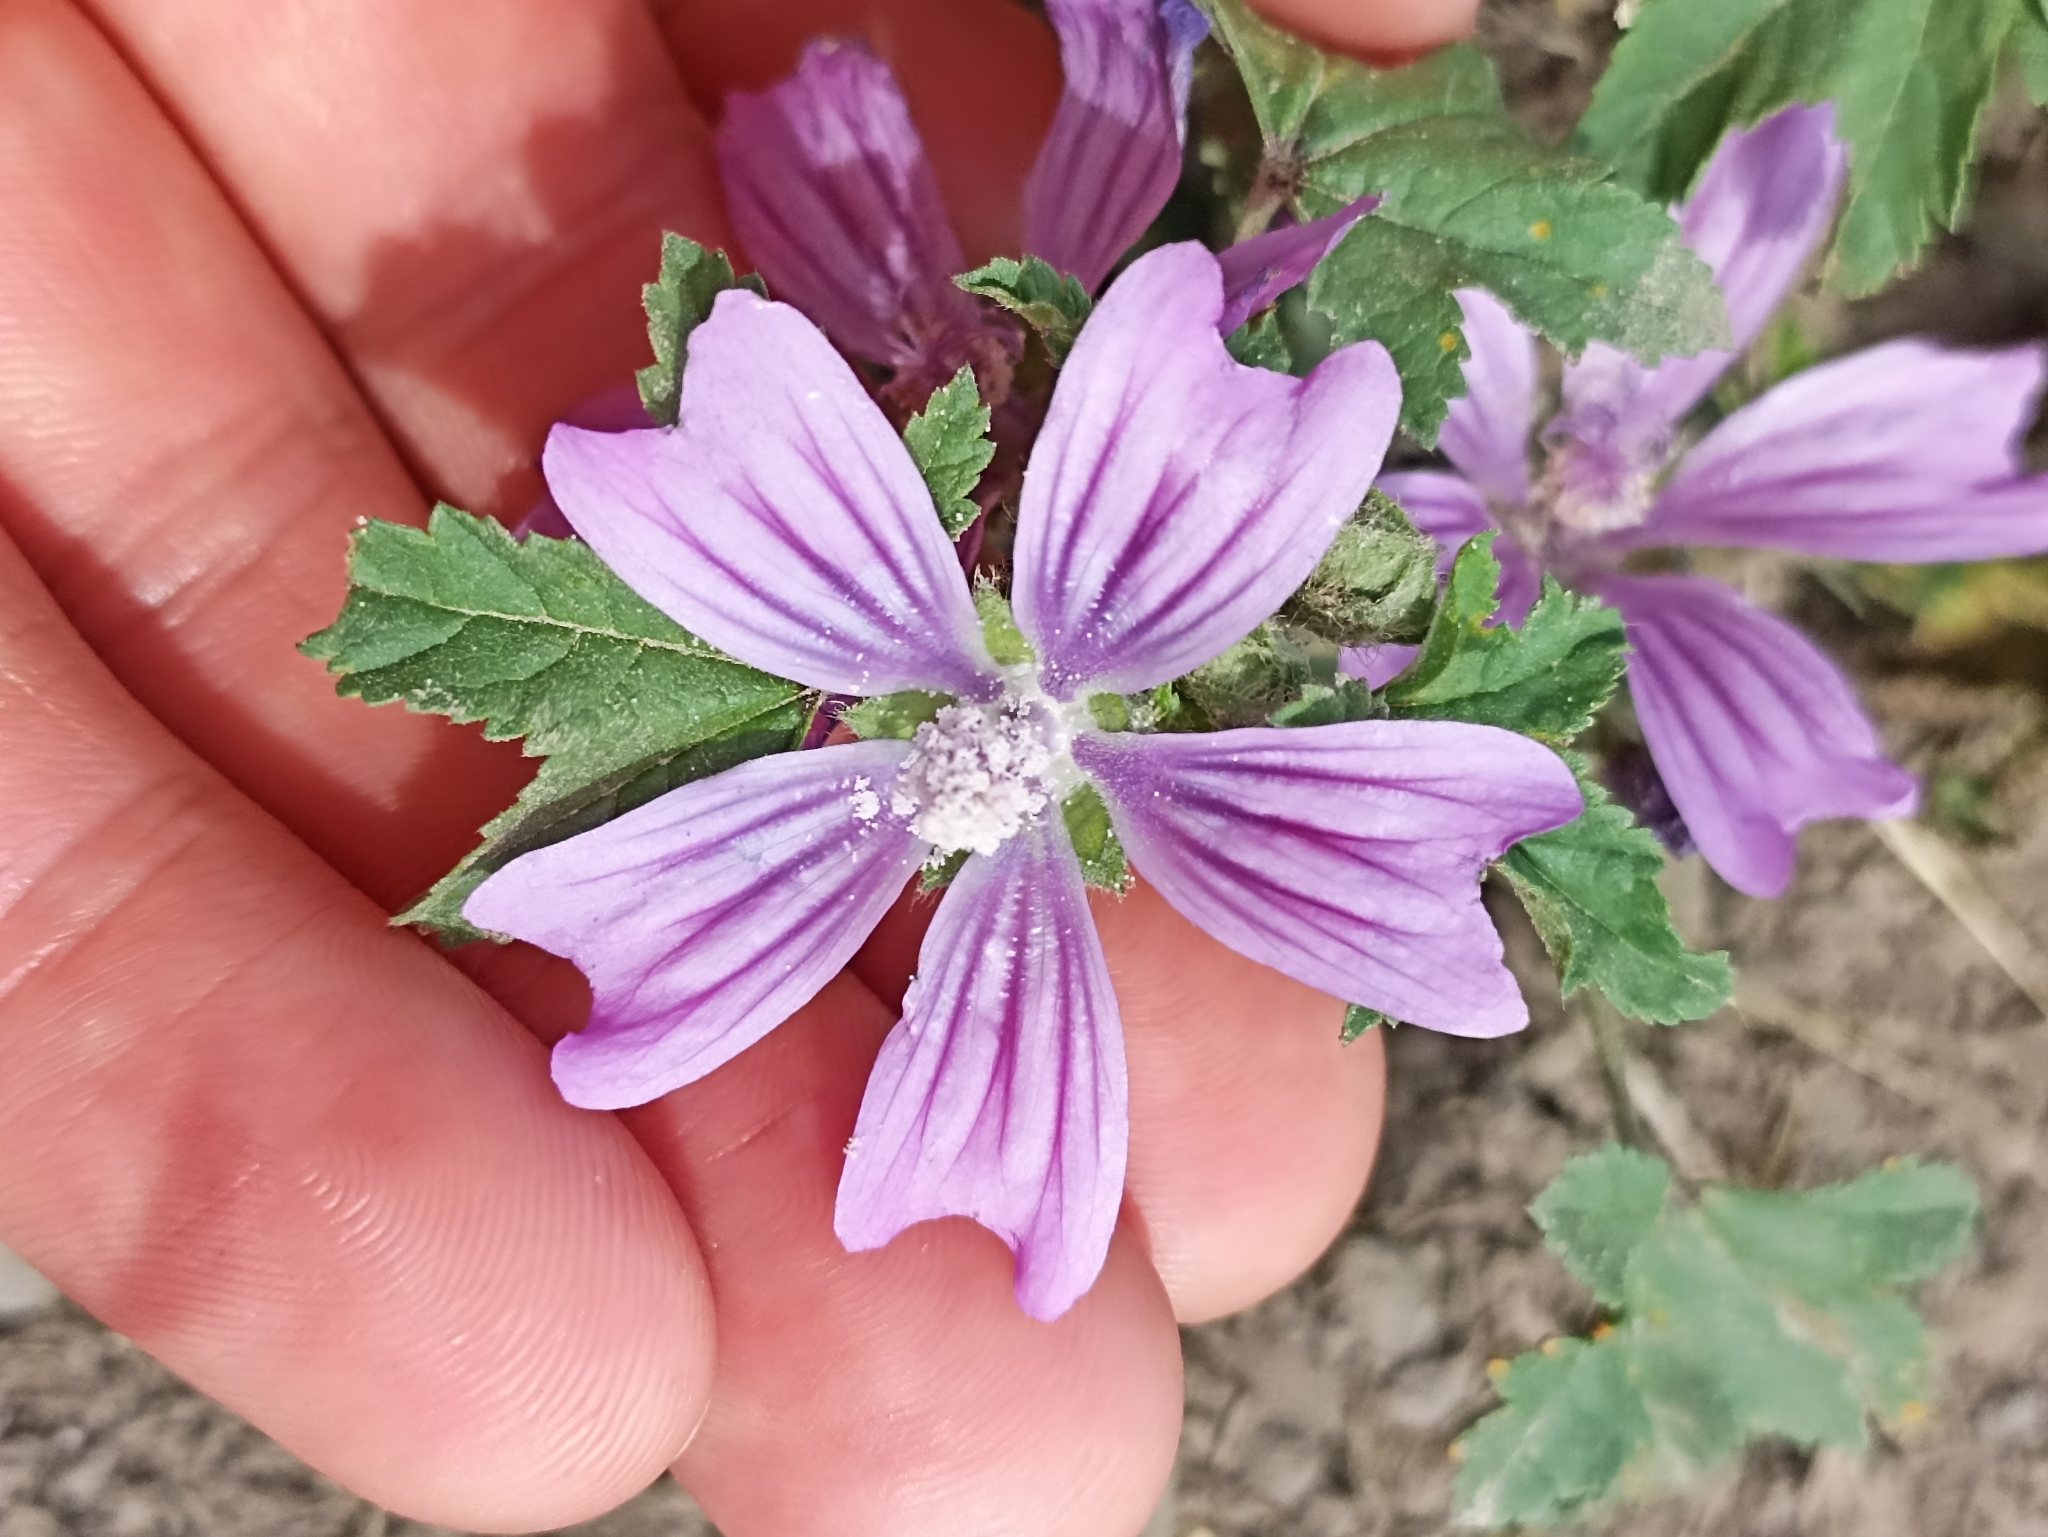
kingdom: Plantae
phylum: Tracheophyta
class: Magnoliopsida
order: Malvales
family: Malvaceae
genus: Malva
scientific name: Malva sylvestris
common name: Common mallow
